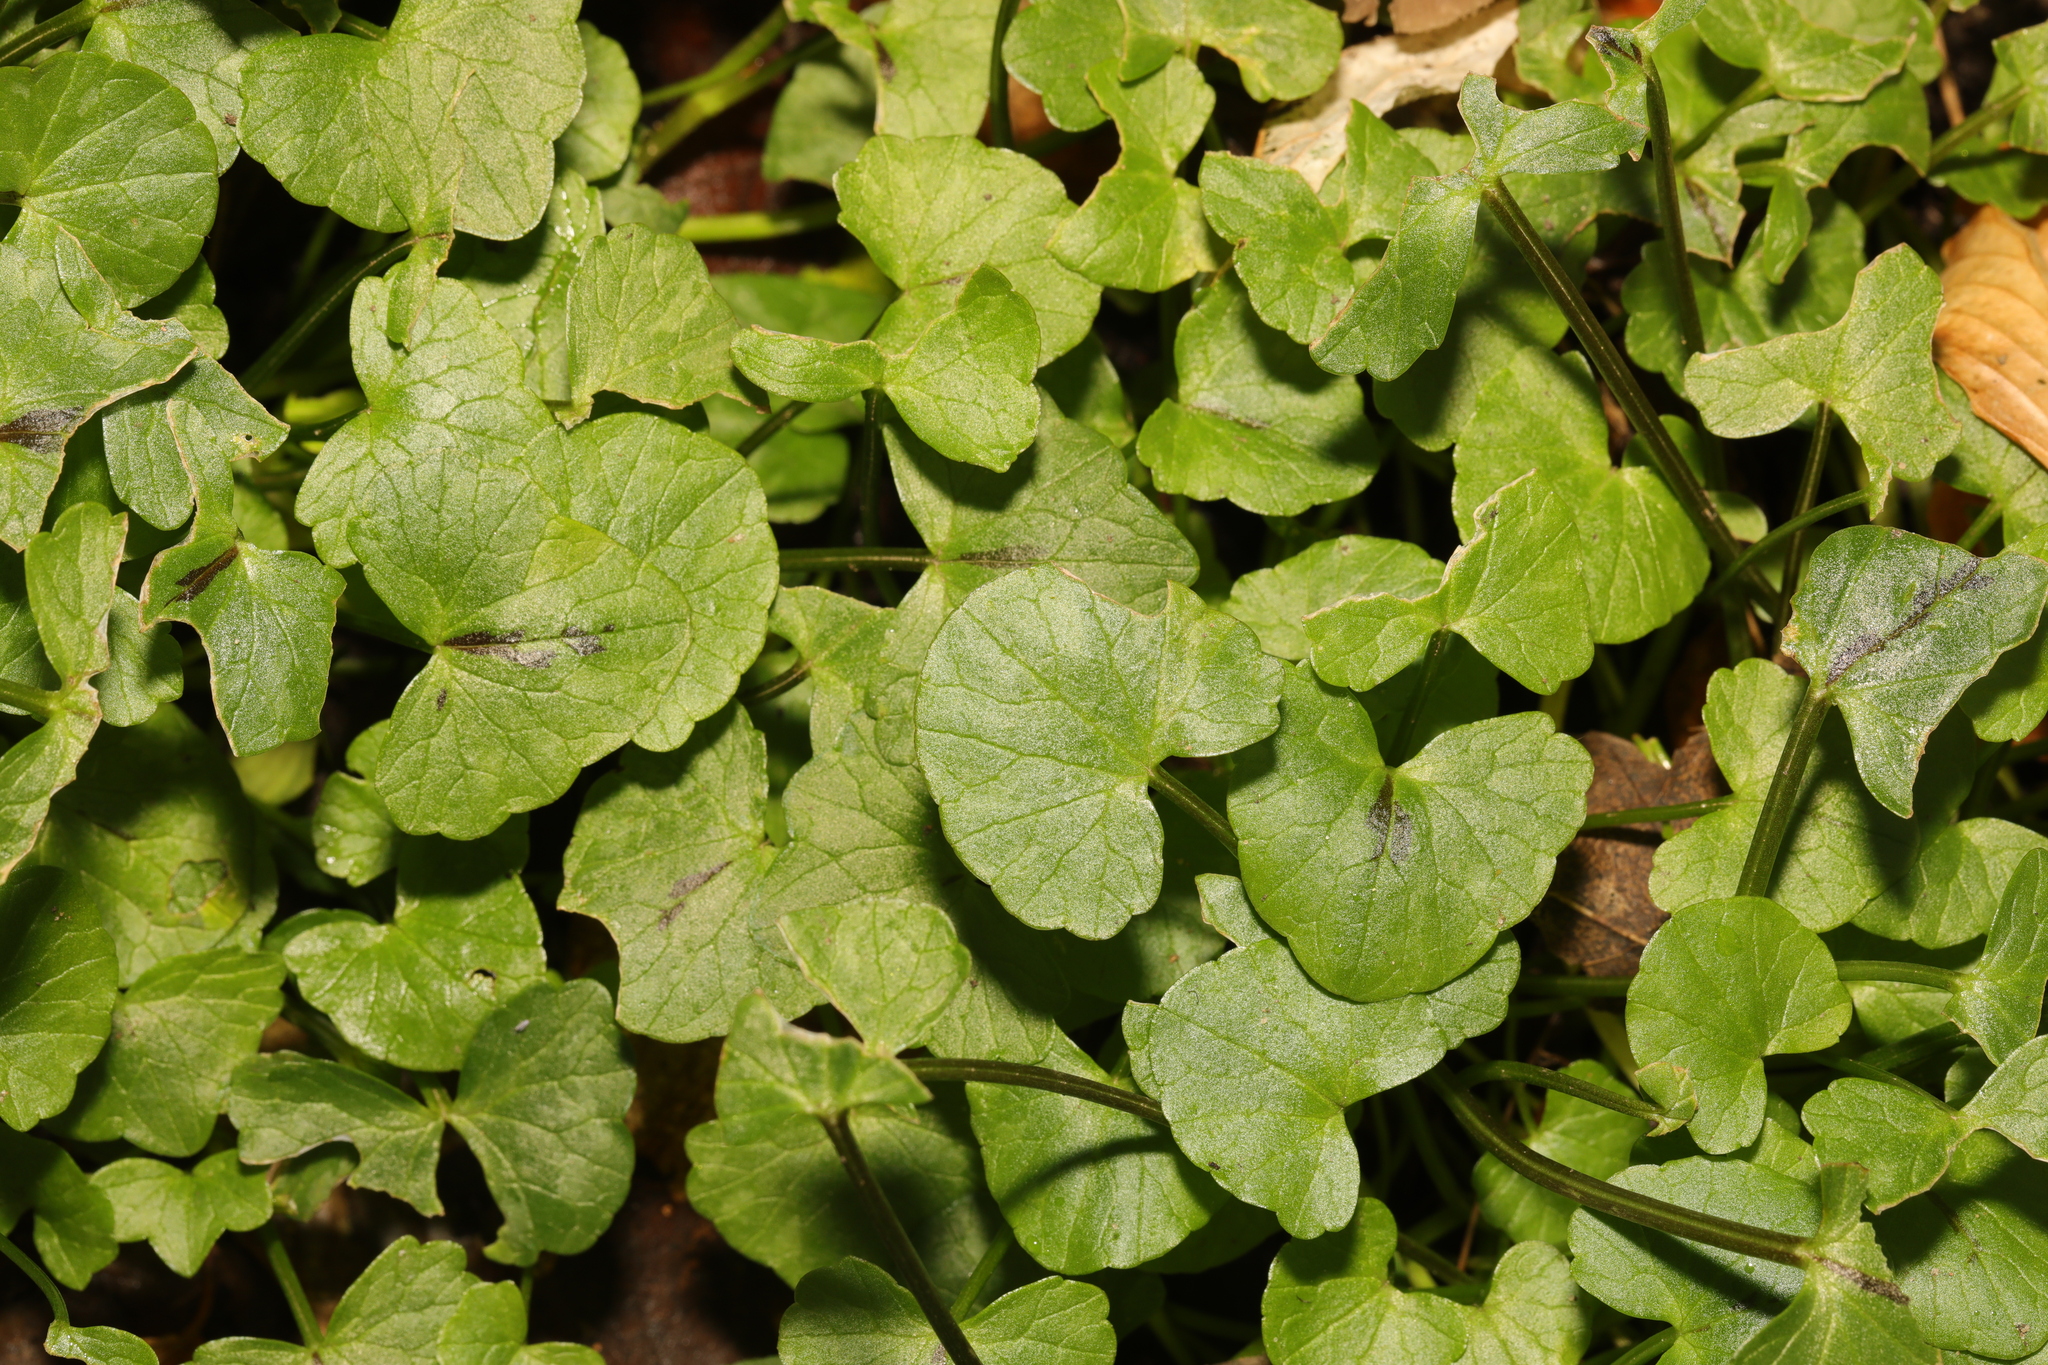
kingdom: Plantae
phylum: Tracheophyta
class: Magnoliopsida
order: Ranunculales
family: Ranunculaceae
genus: Ficaria
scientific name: Ficaria verna
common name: Lesser celandine
